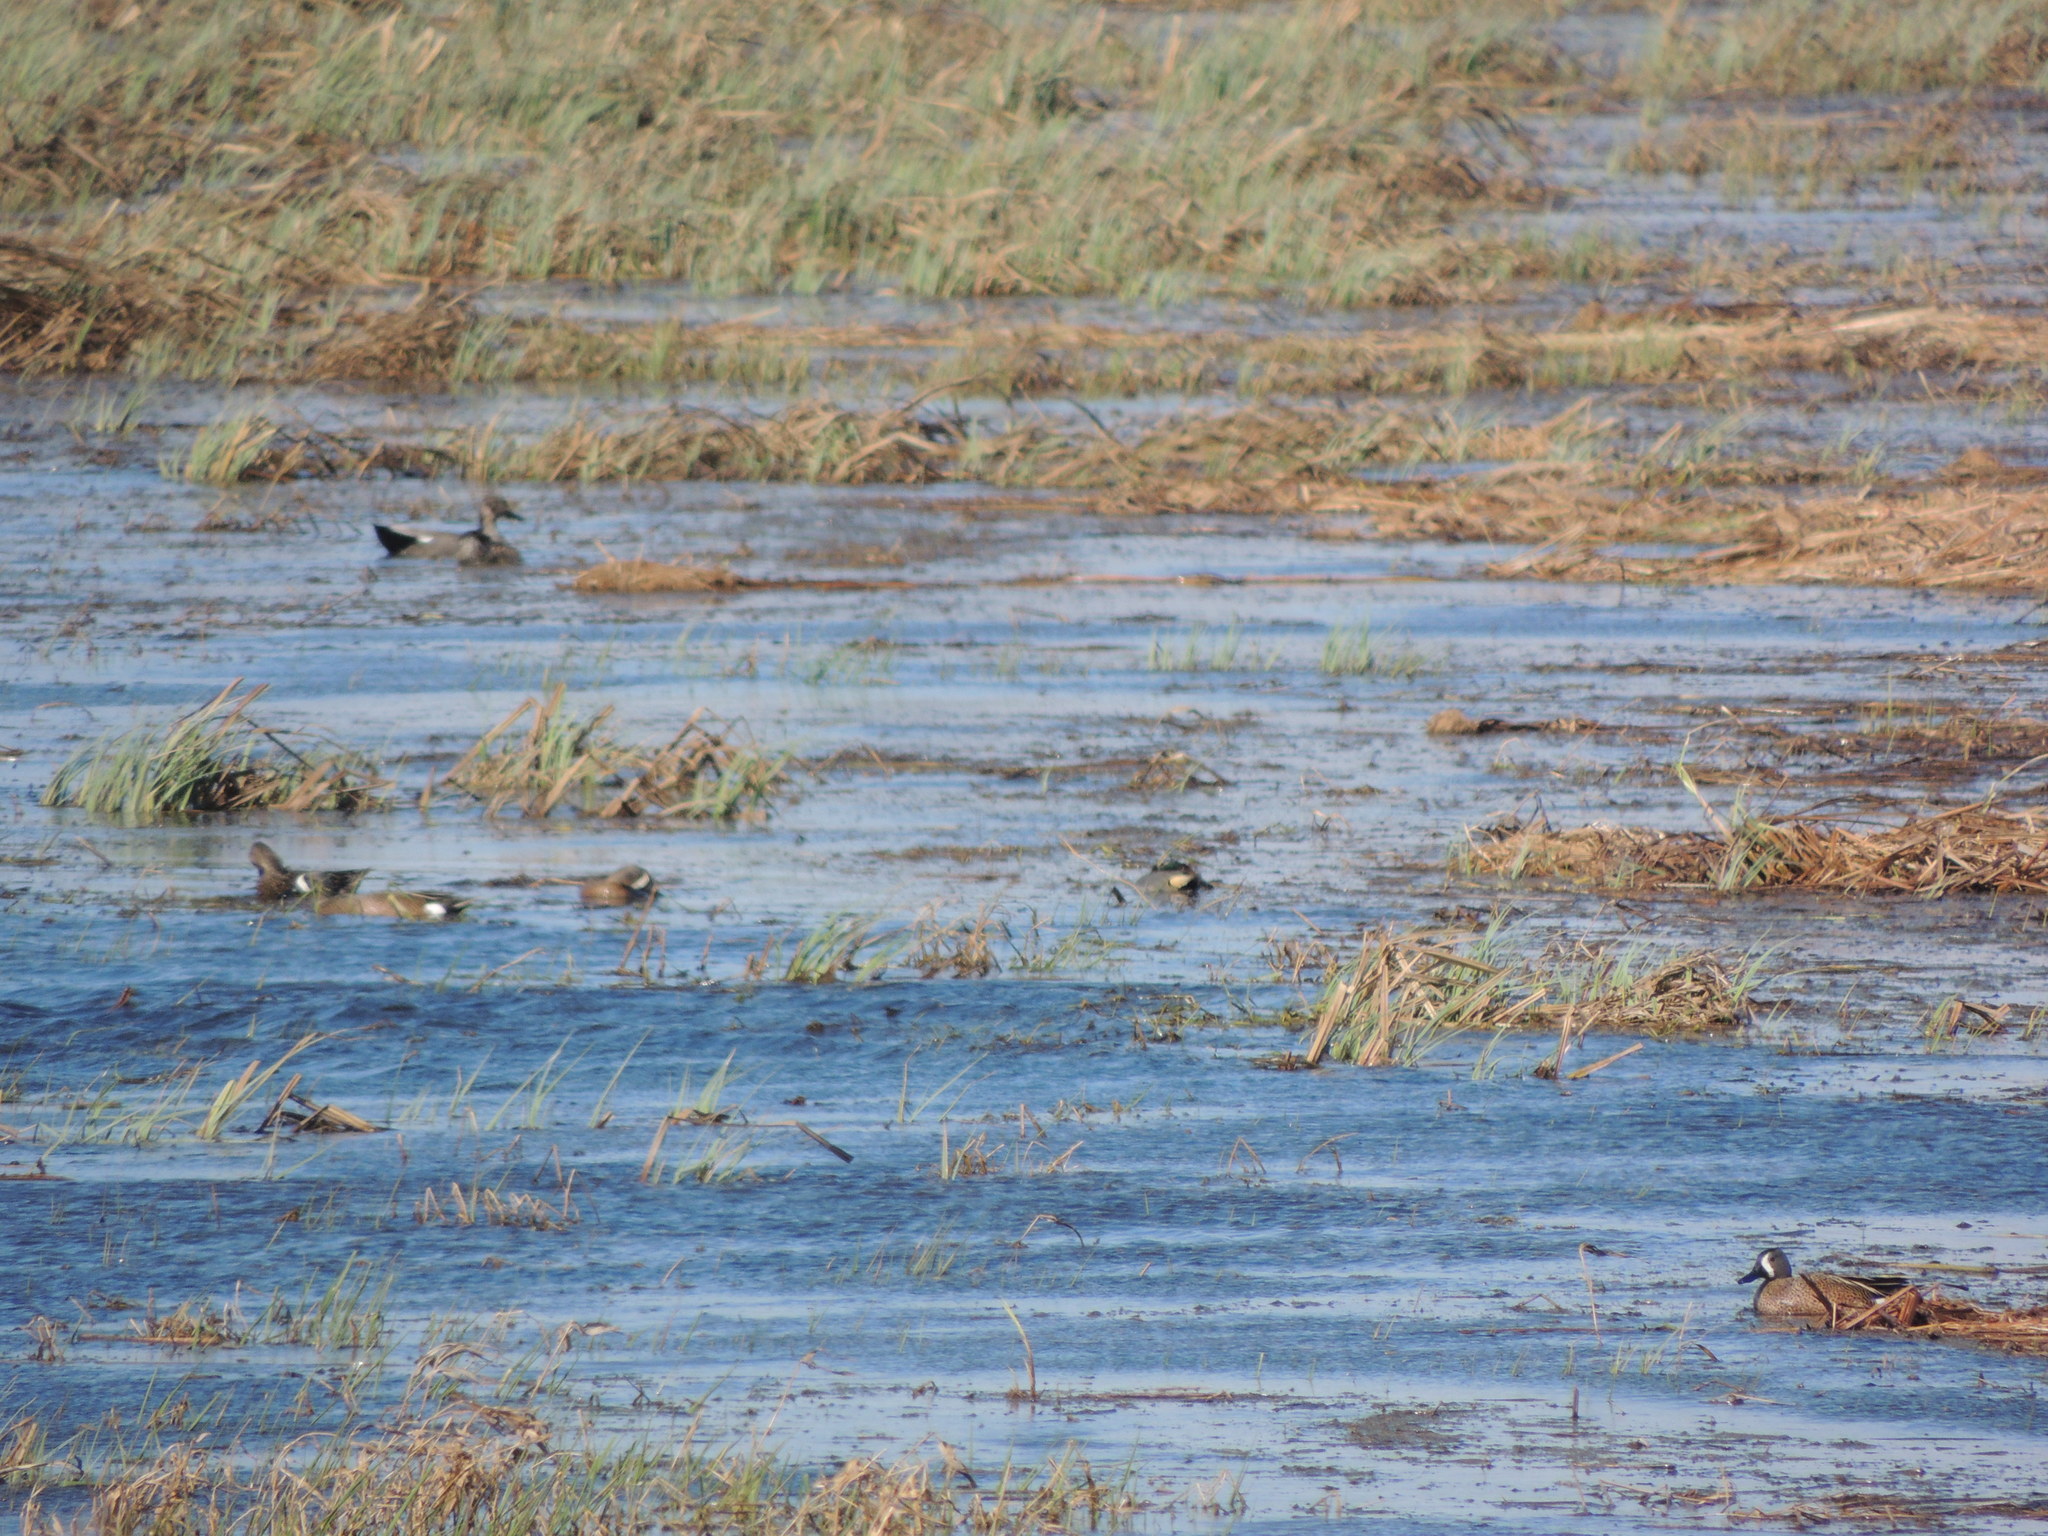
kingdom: Animalia
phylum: Chordata
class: Aves
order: Anseriformes
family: Anatidae
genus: Spatula
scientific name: Spatula discors
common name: Blue-winged teal
